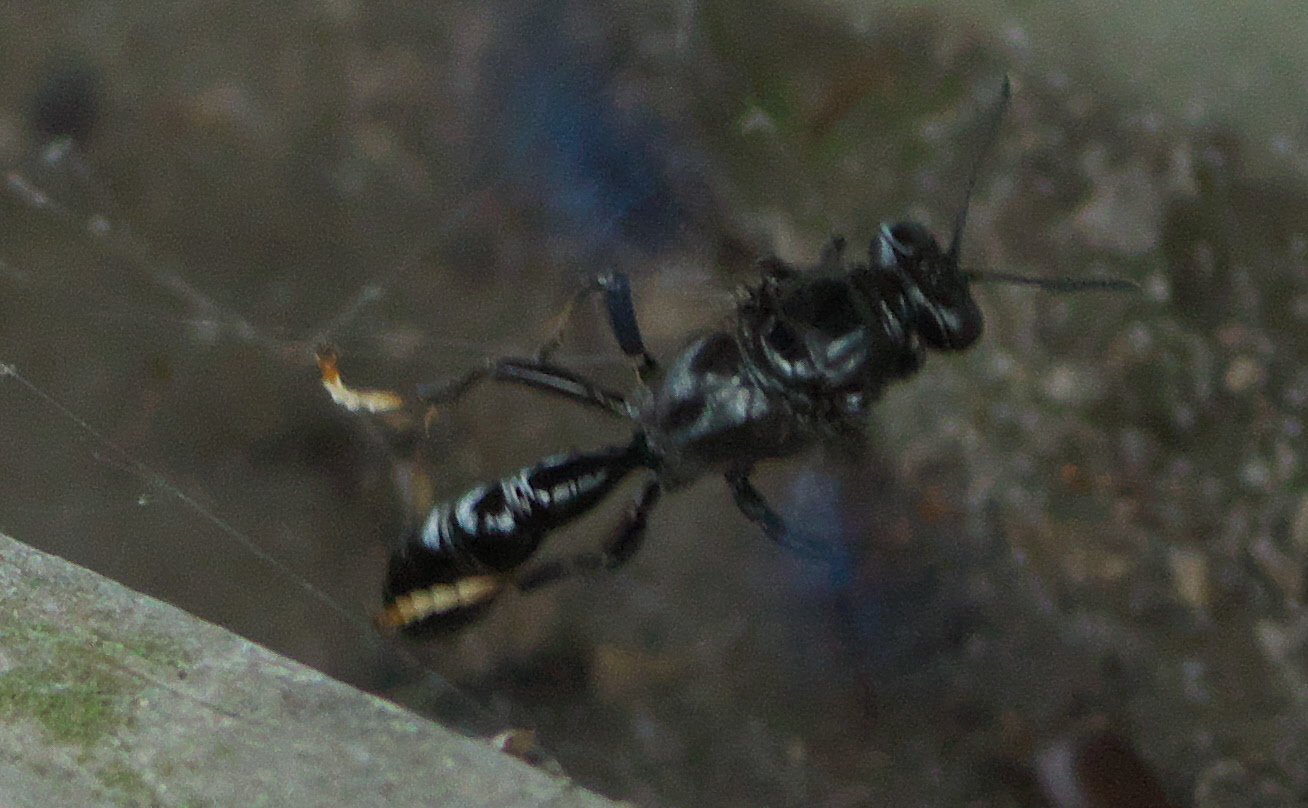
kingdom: Animalia
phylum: Arthropoda
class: Insecta
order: Hymenoptera
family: Crabronidae
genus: Trypoxylon
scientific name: Trypoxylon politum
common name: Organ-pipe mud-dauber wasp
